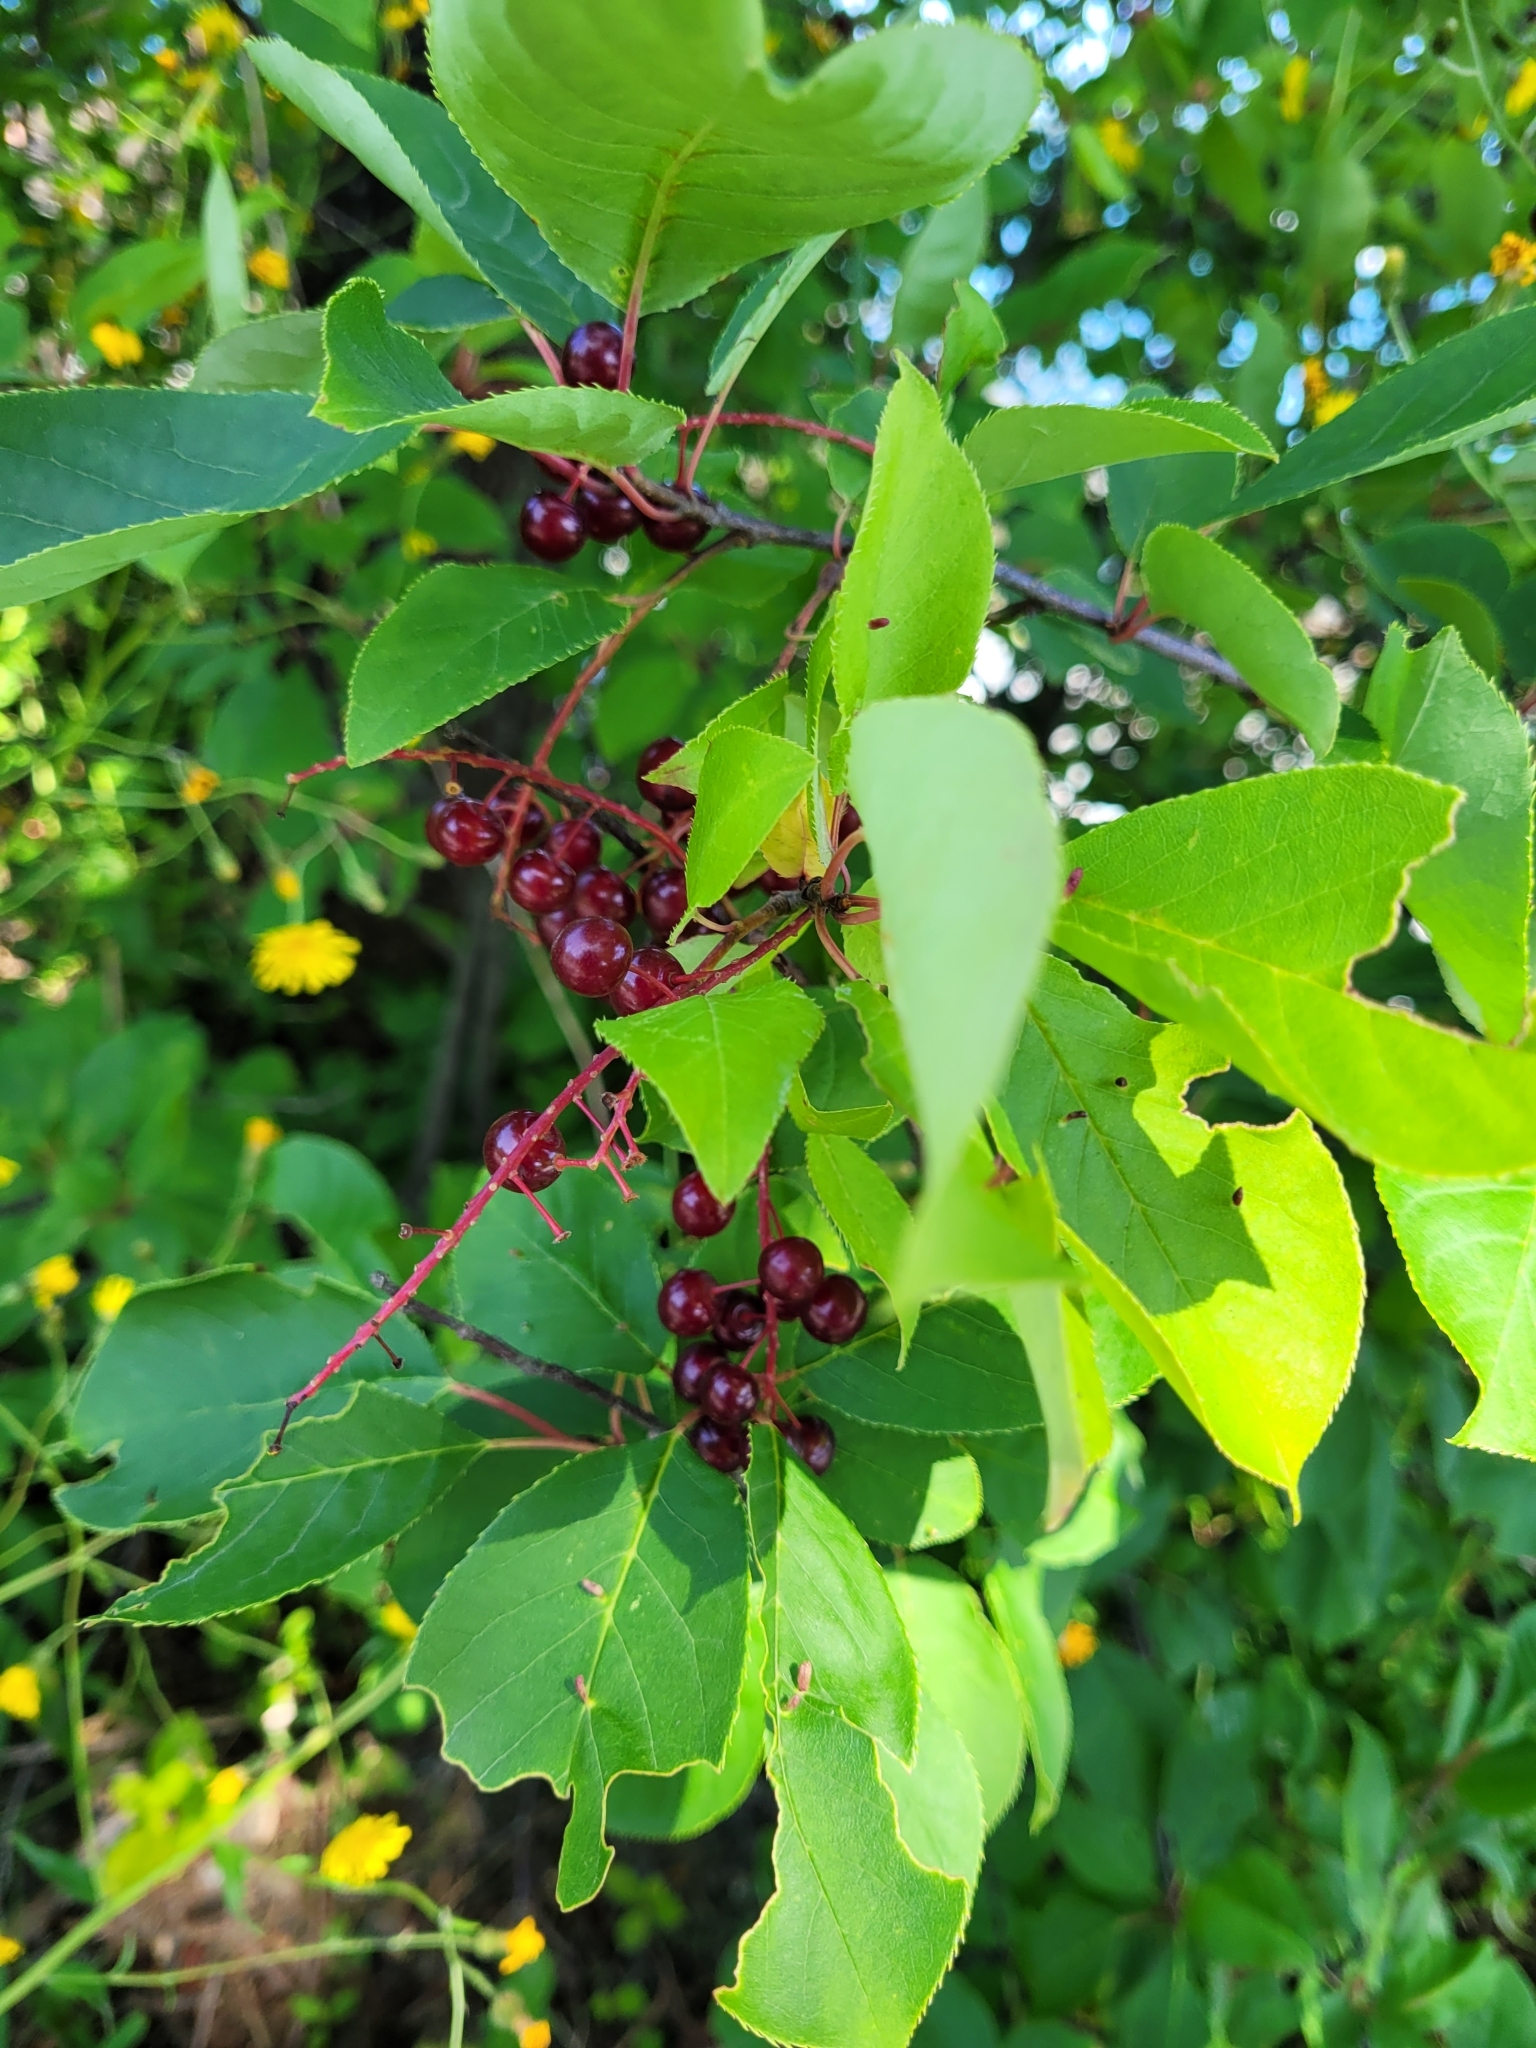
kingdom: Plantae
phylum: Tracheophyta
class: Magnoliopsida
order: Rosales
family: Rosaceae
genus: Prunus
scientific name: Prunus virginiana
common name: Chokecherry
